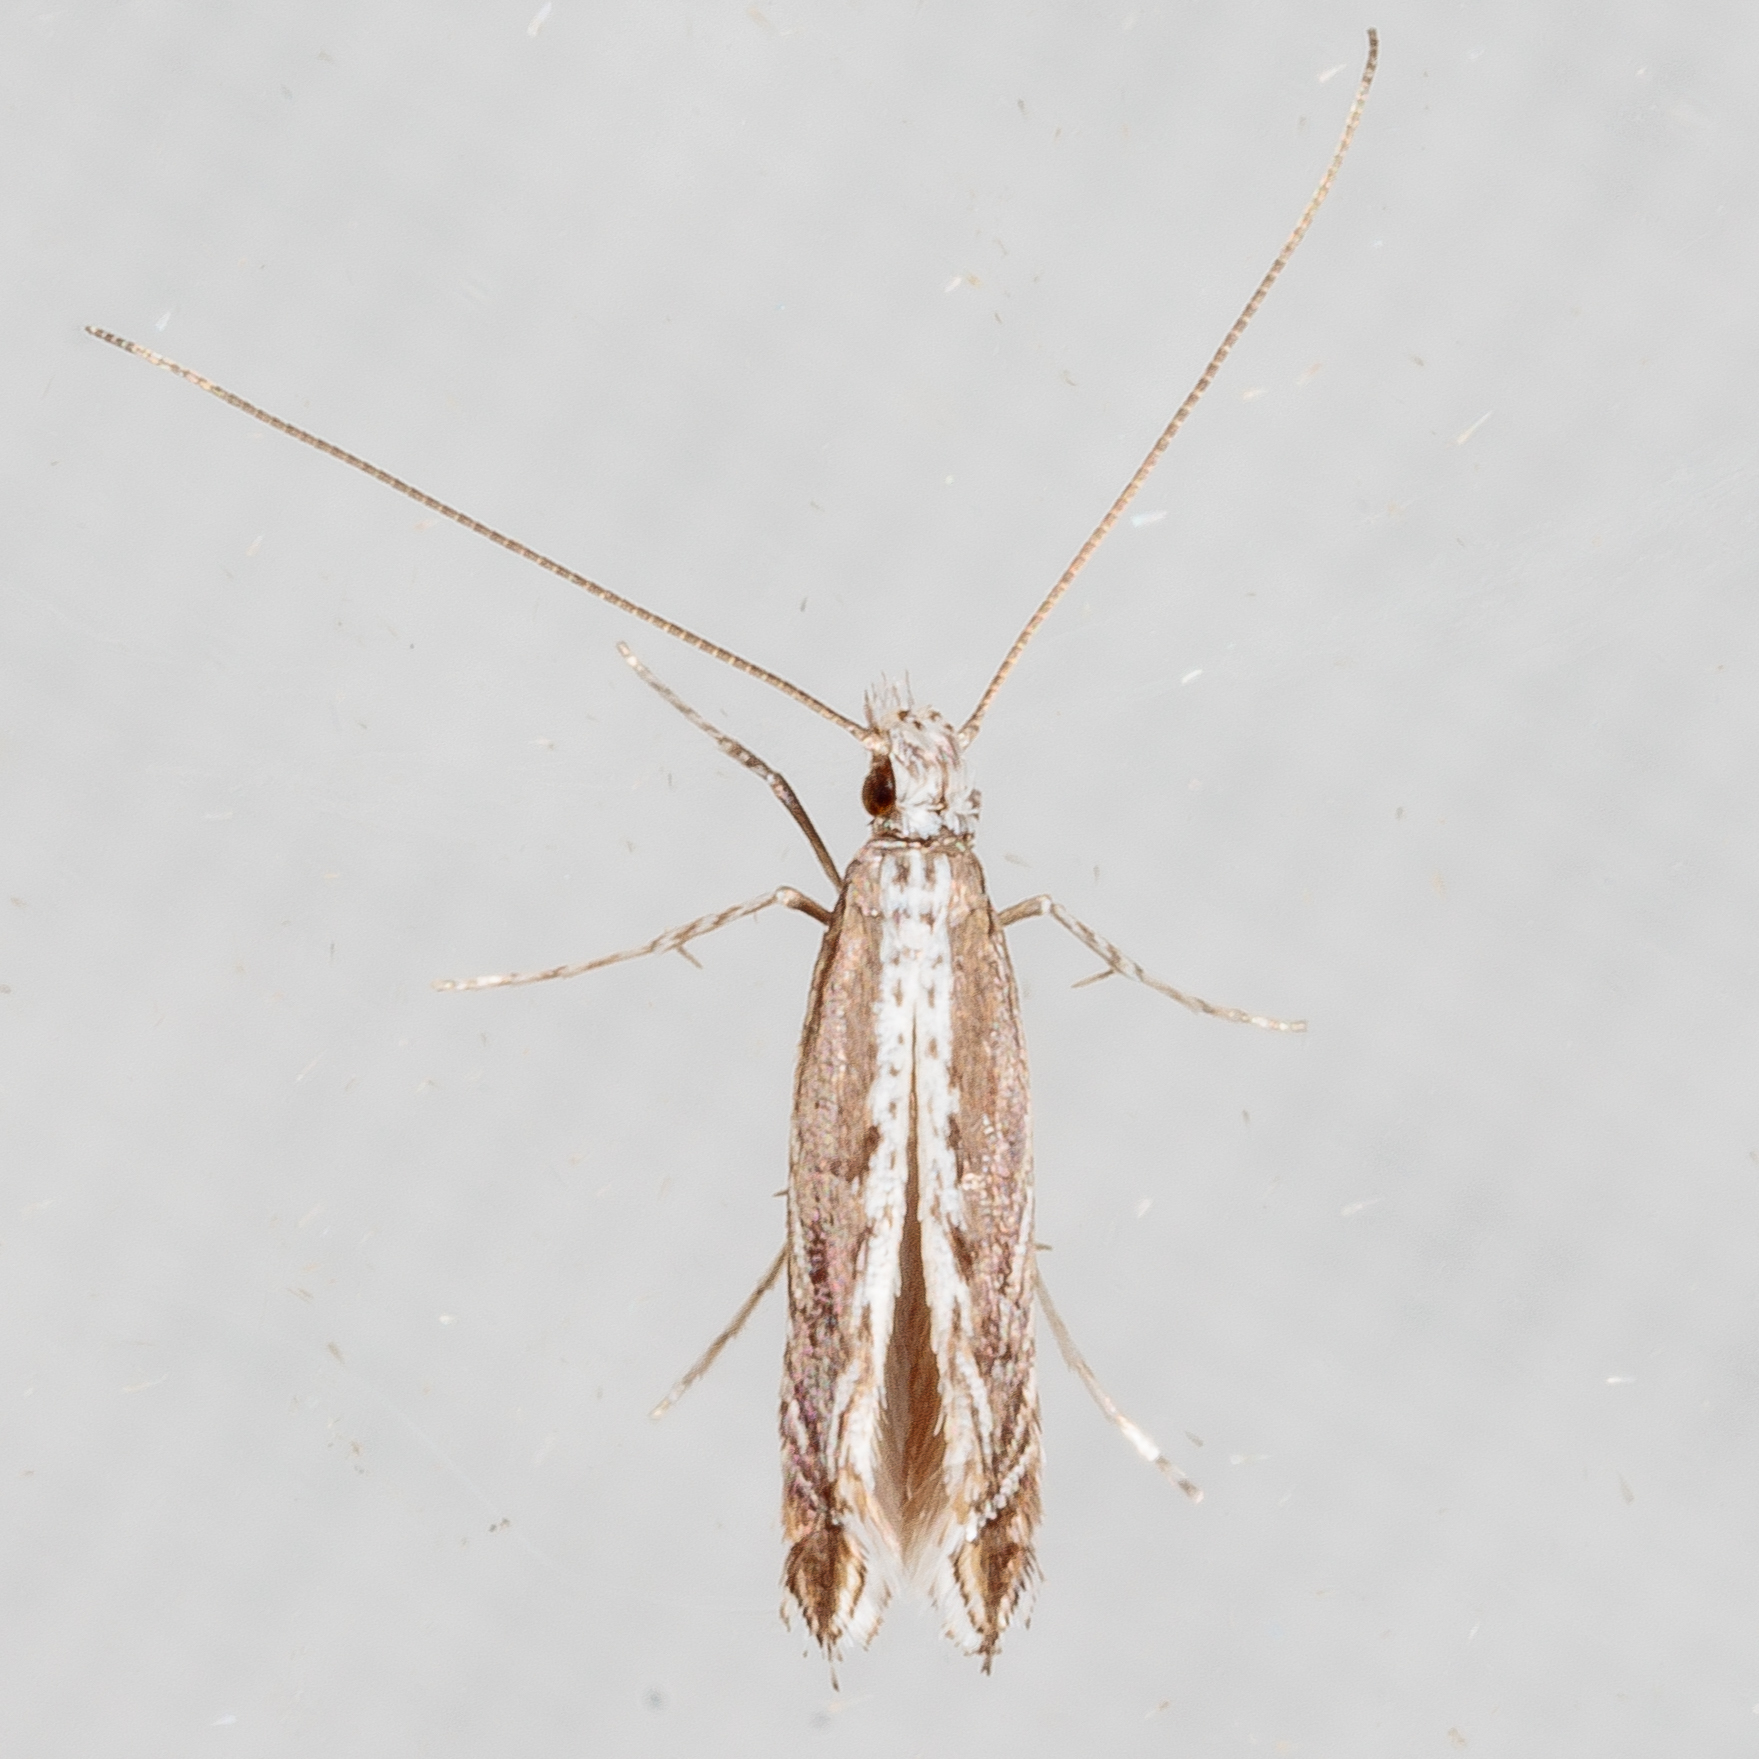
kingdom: Plantae
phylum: Rhodophyta
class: Florideophyceae
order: Gracilariales
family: Gracilariaceae
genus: Gracilaria
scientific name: Gracilaria
